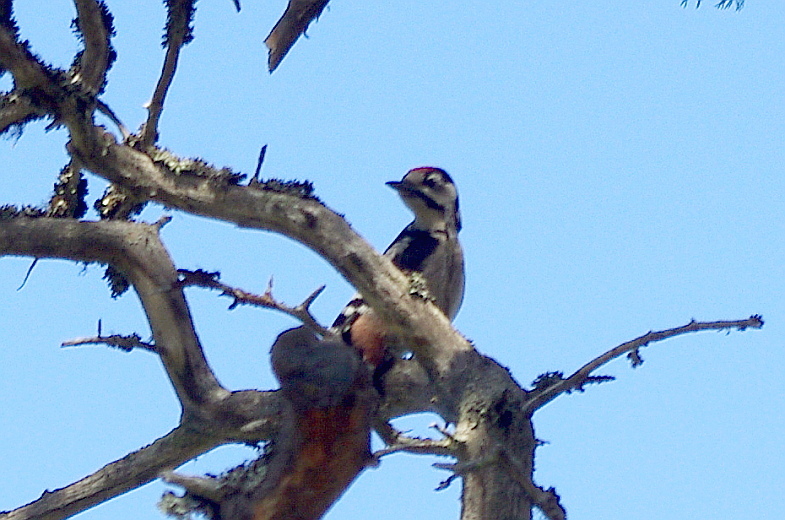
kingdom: Animalia
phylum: Chordata
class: Aves
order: Piciformes
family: Picidae
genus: Dendrocopos
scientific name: Dendrocopos major
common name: Great spotted woodpecker
